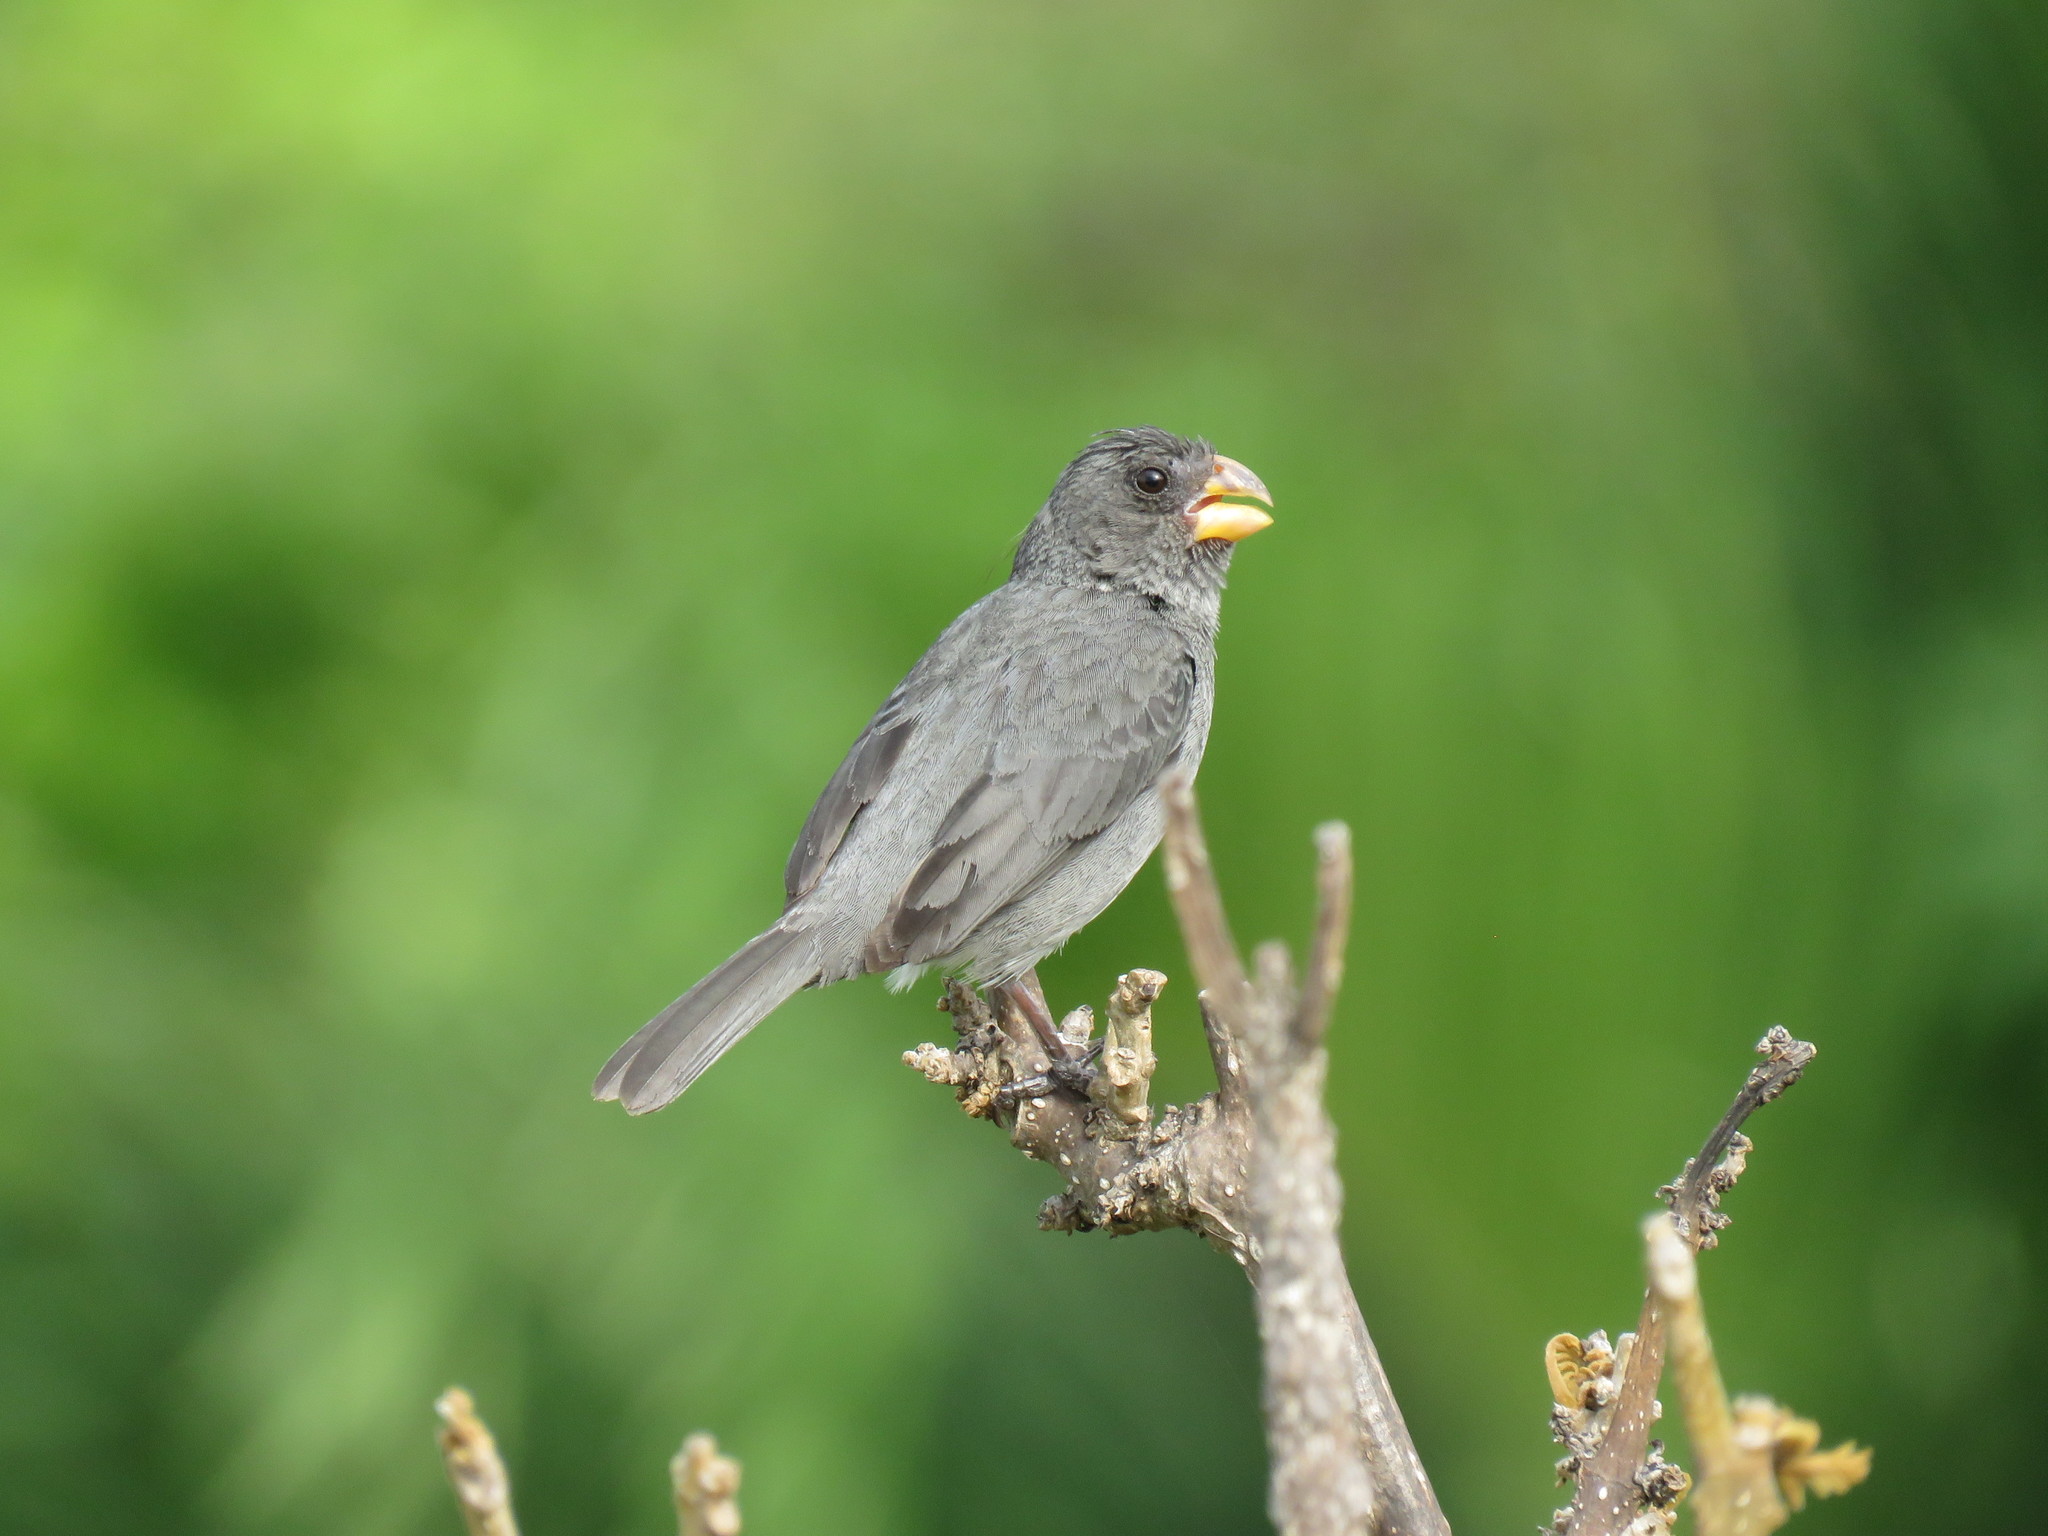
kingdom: Animalia
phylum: Chordata
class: Aves
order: Passeriformes
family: Thraupidae
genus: Sporophila
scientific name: Sporophila intermedia
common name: Grey seedeater
